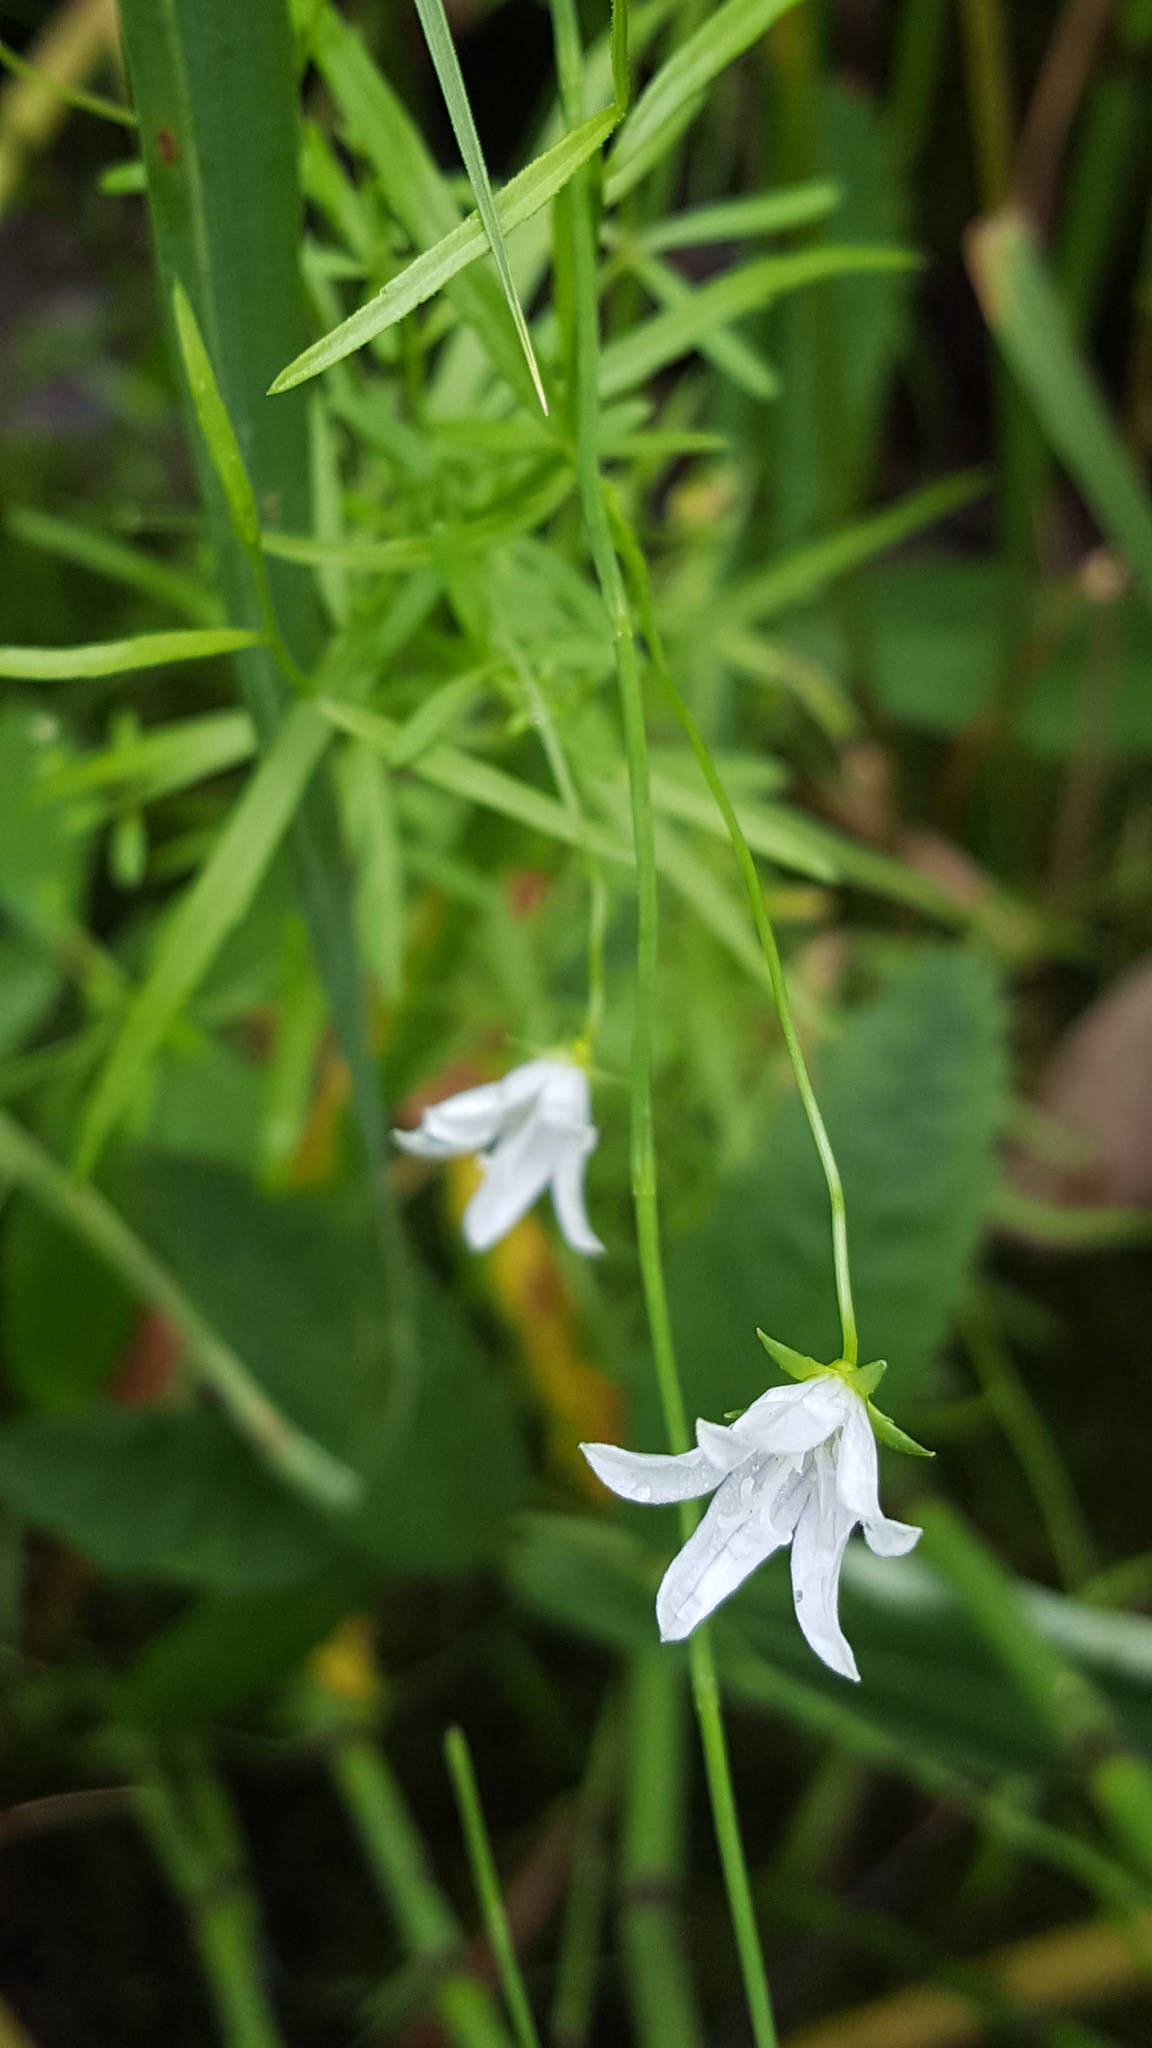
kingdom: Plantae
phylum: Tracheophyta
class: Magnoliopsida
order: Asterales
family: Campanulaceae
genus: Palustricodon
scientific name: Palustricodon aparinoides
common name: Bedstraw bellflower
